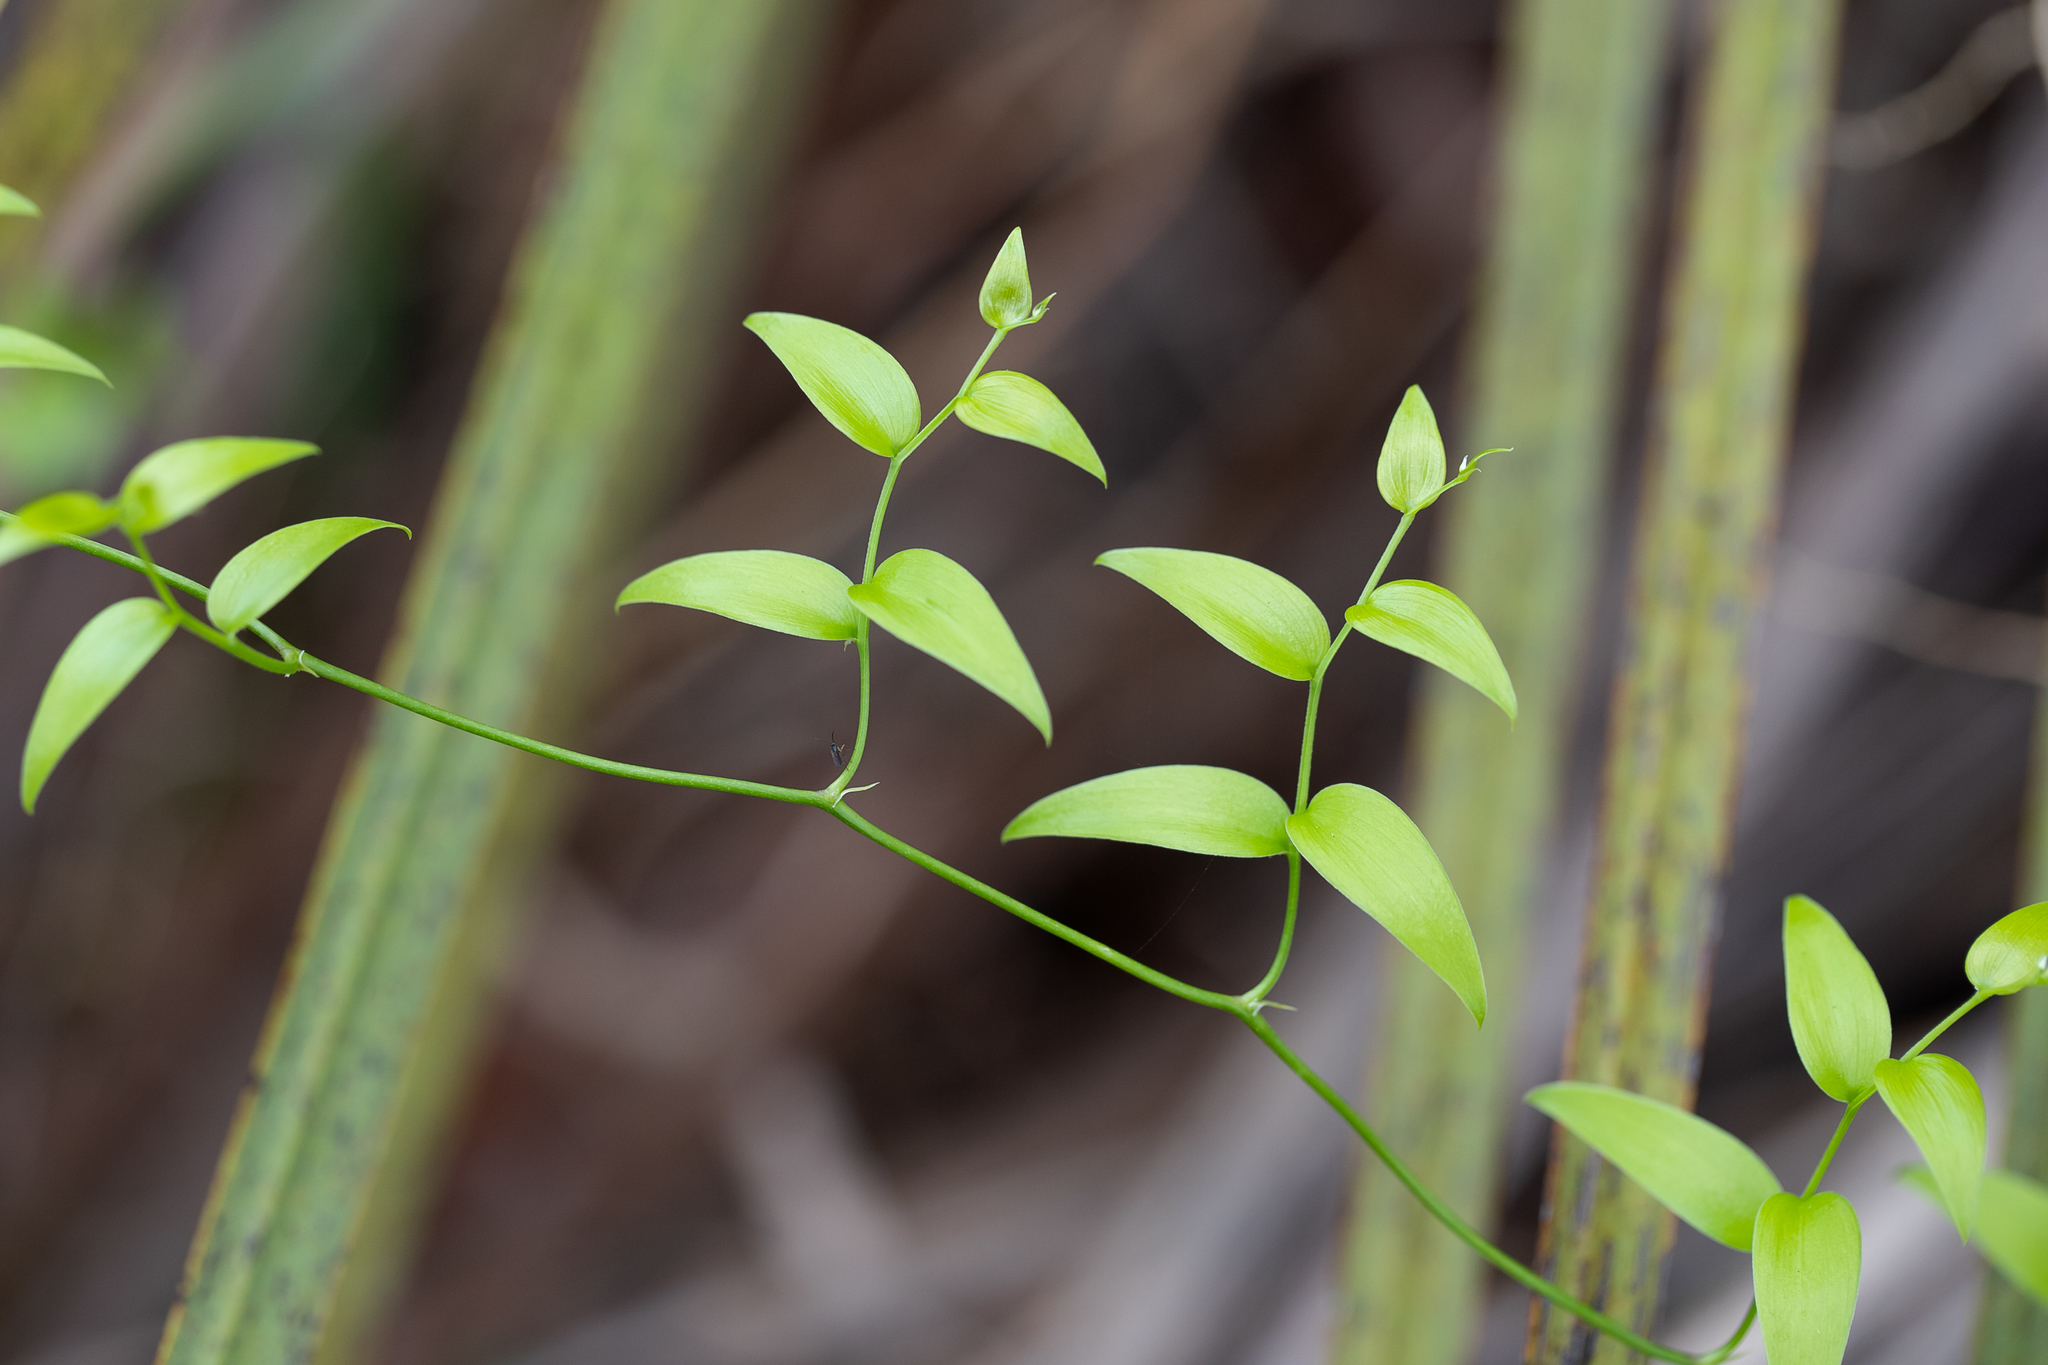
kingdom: Plantae
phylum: Tracheophyta
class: Liliopsida
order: Asparagales
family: Asparagaceae
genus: Asparagus
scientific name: Asparagus asparagoides
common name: African asparagus fern
